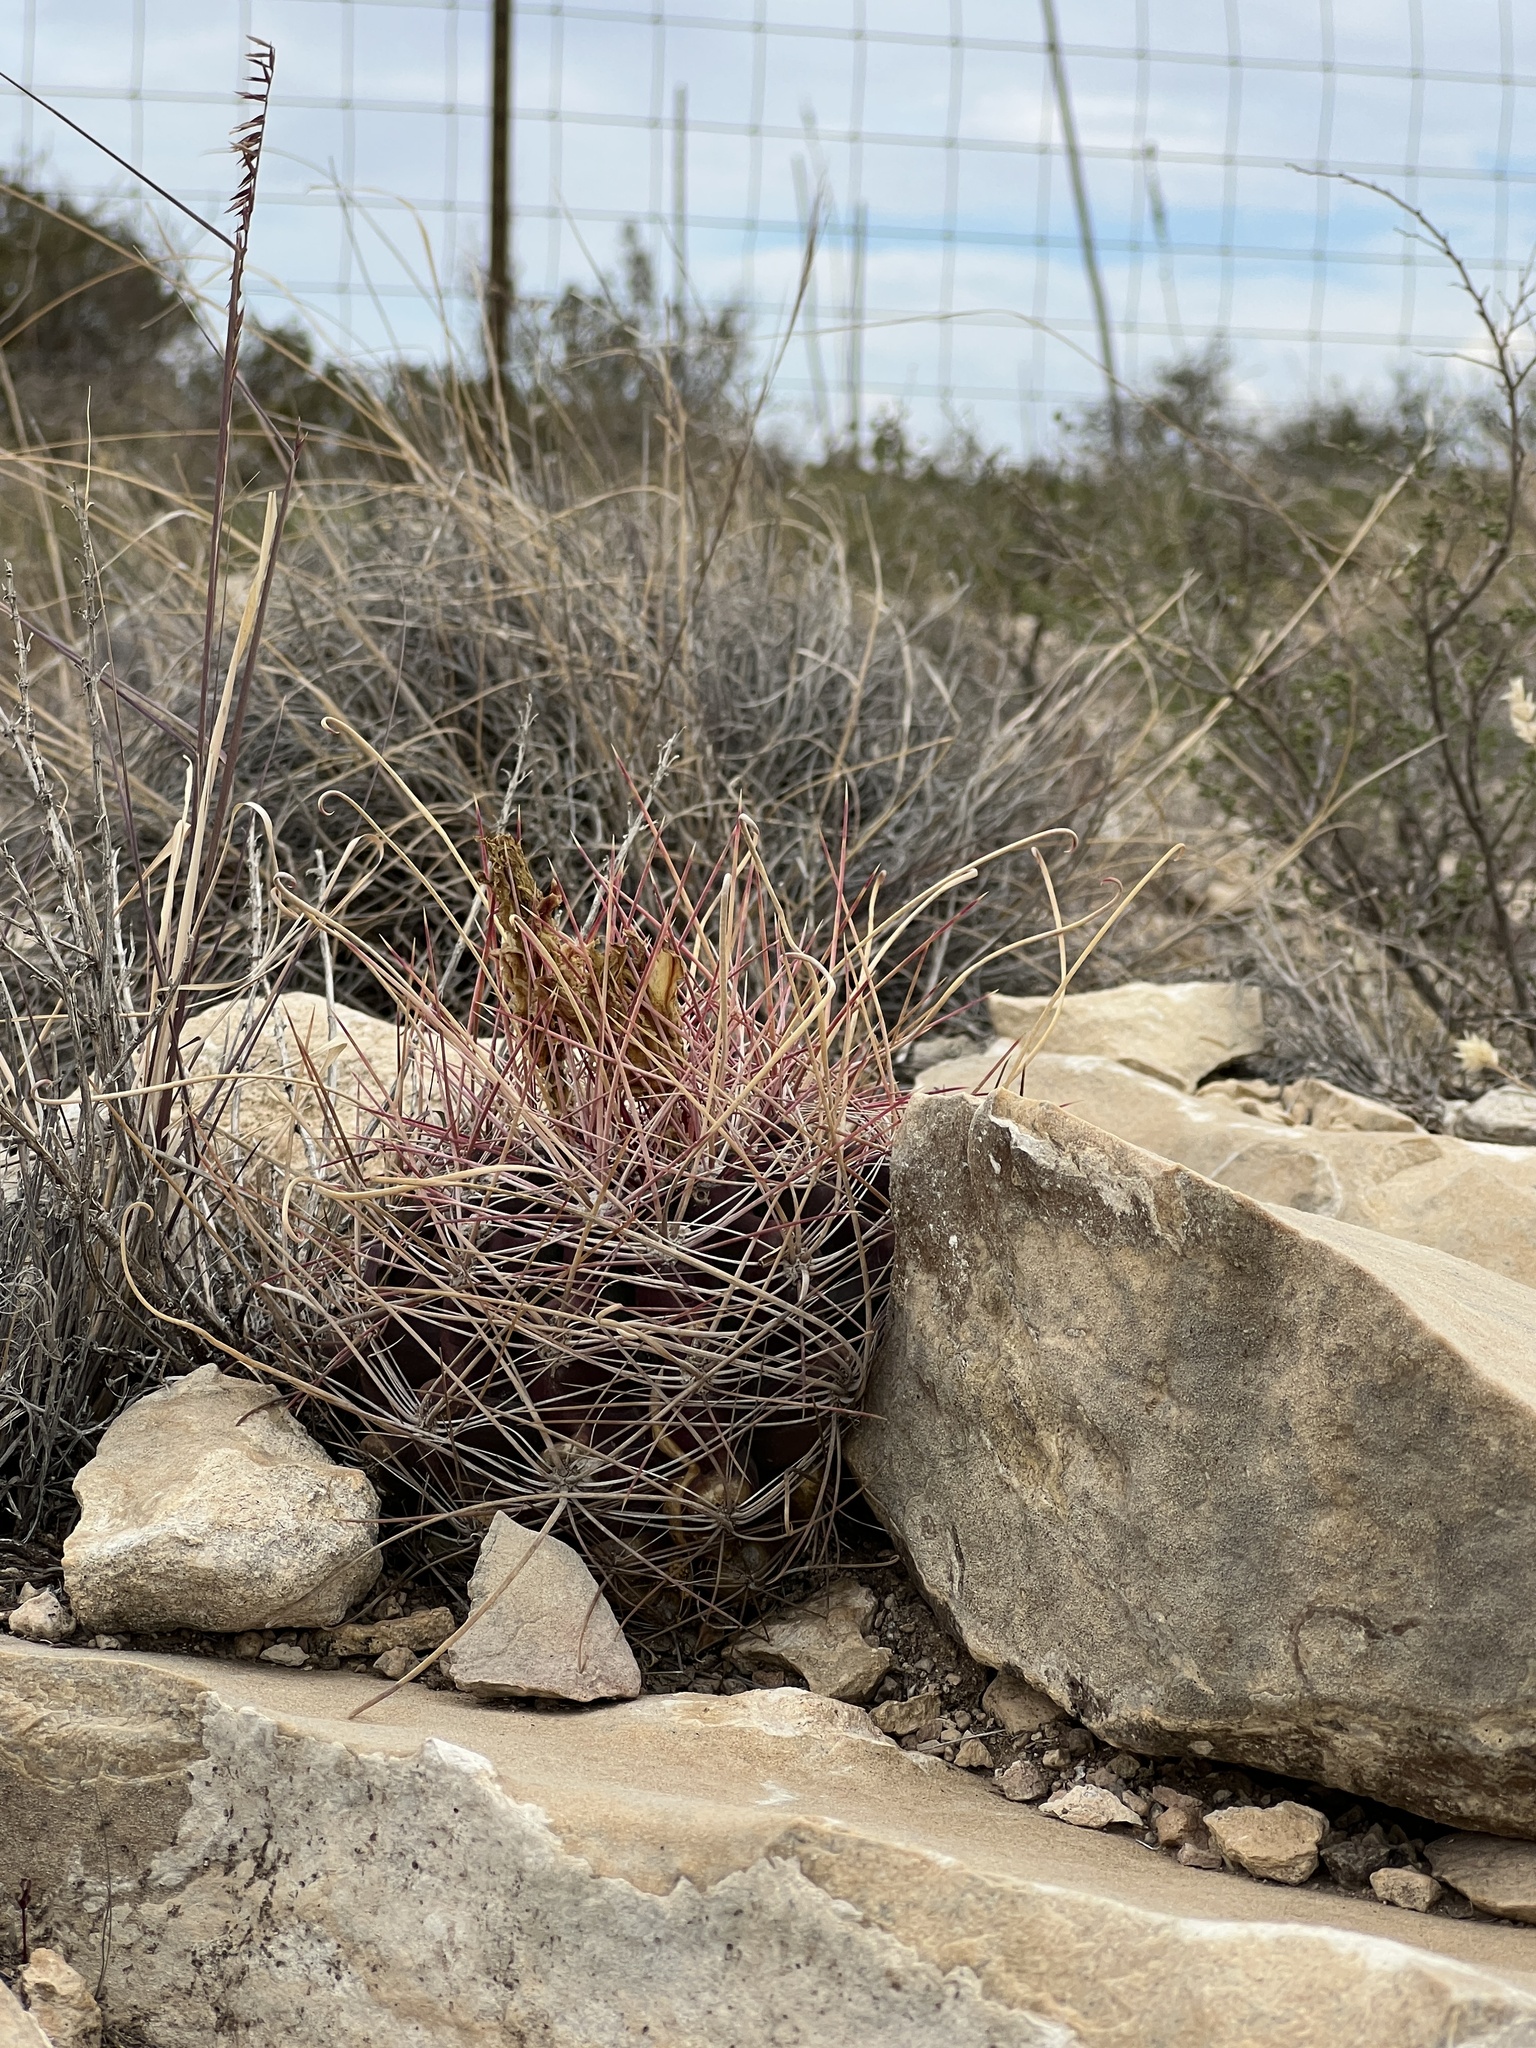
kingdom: Plantae
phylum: Tracheophyta
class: Magnoliopsida
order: Caryophyllales
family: Cactaceae
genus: Bisnaga
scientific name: Bisnaga hamatacantha
